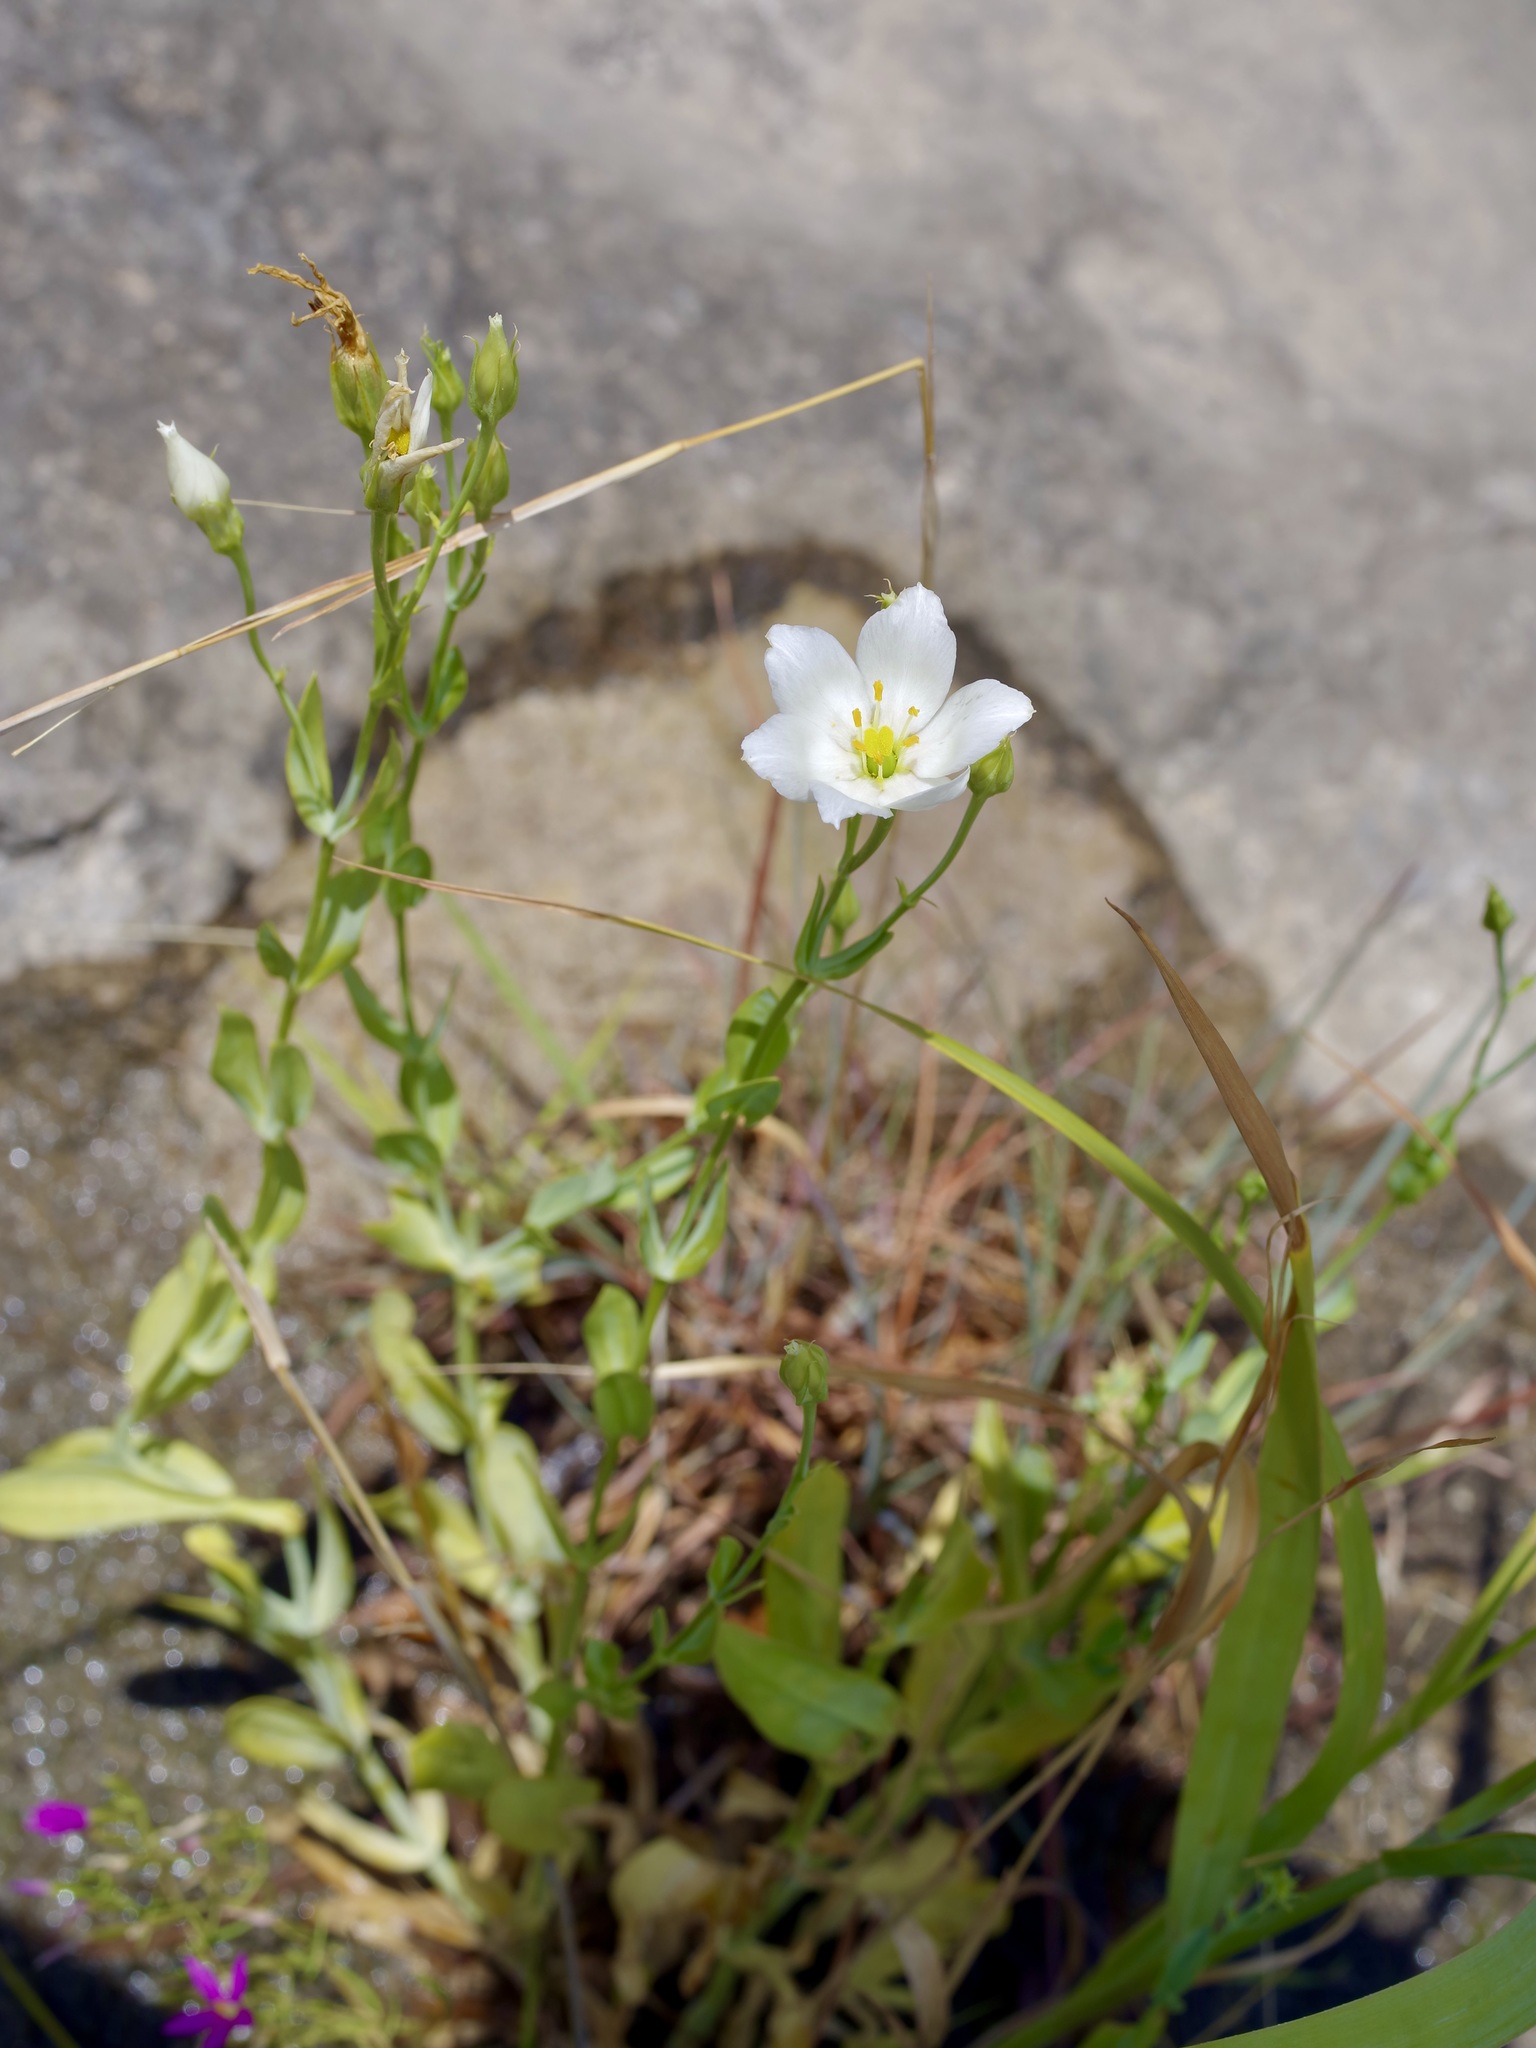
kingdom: Plantae
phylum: Tracheophyta
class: Magnoliopsida
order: Gentianales
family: Gentianaceae
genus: Eustoma
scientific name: Eustoma exaltatum
